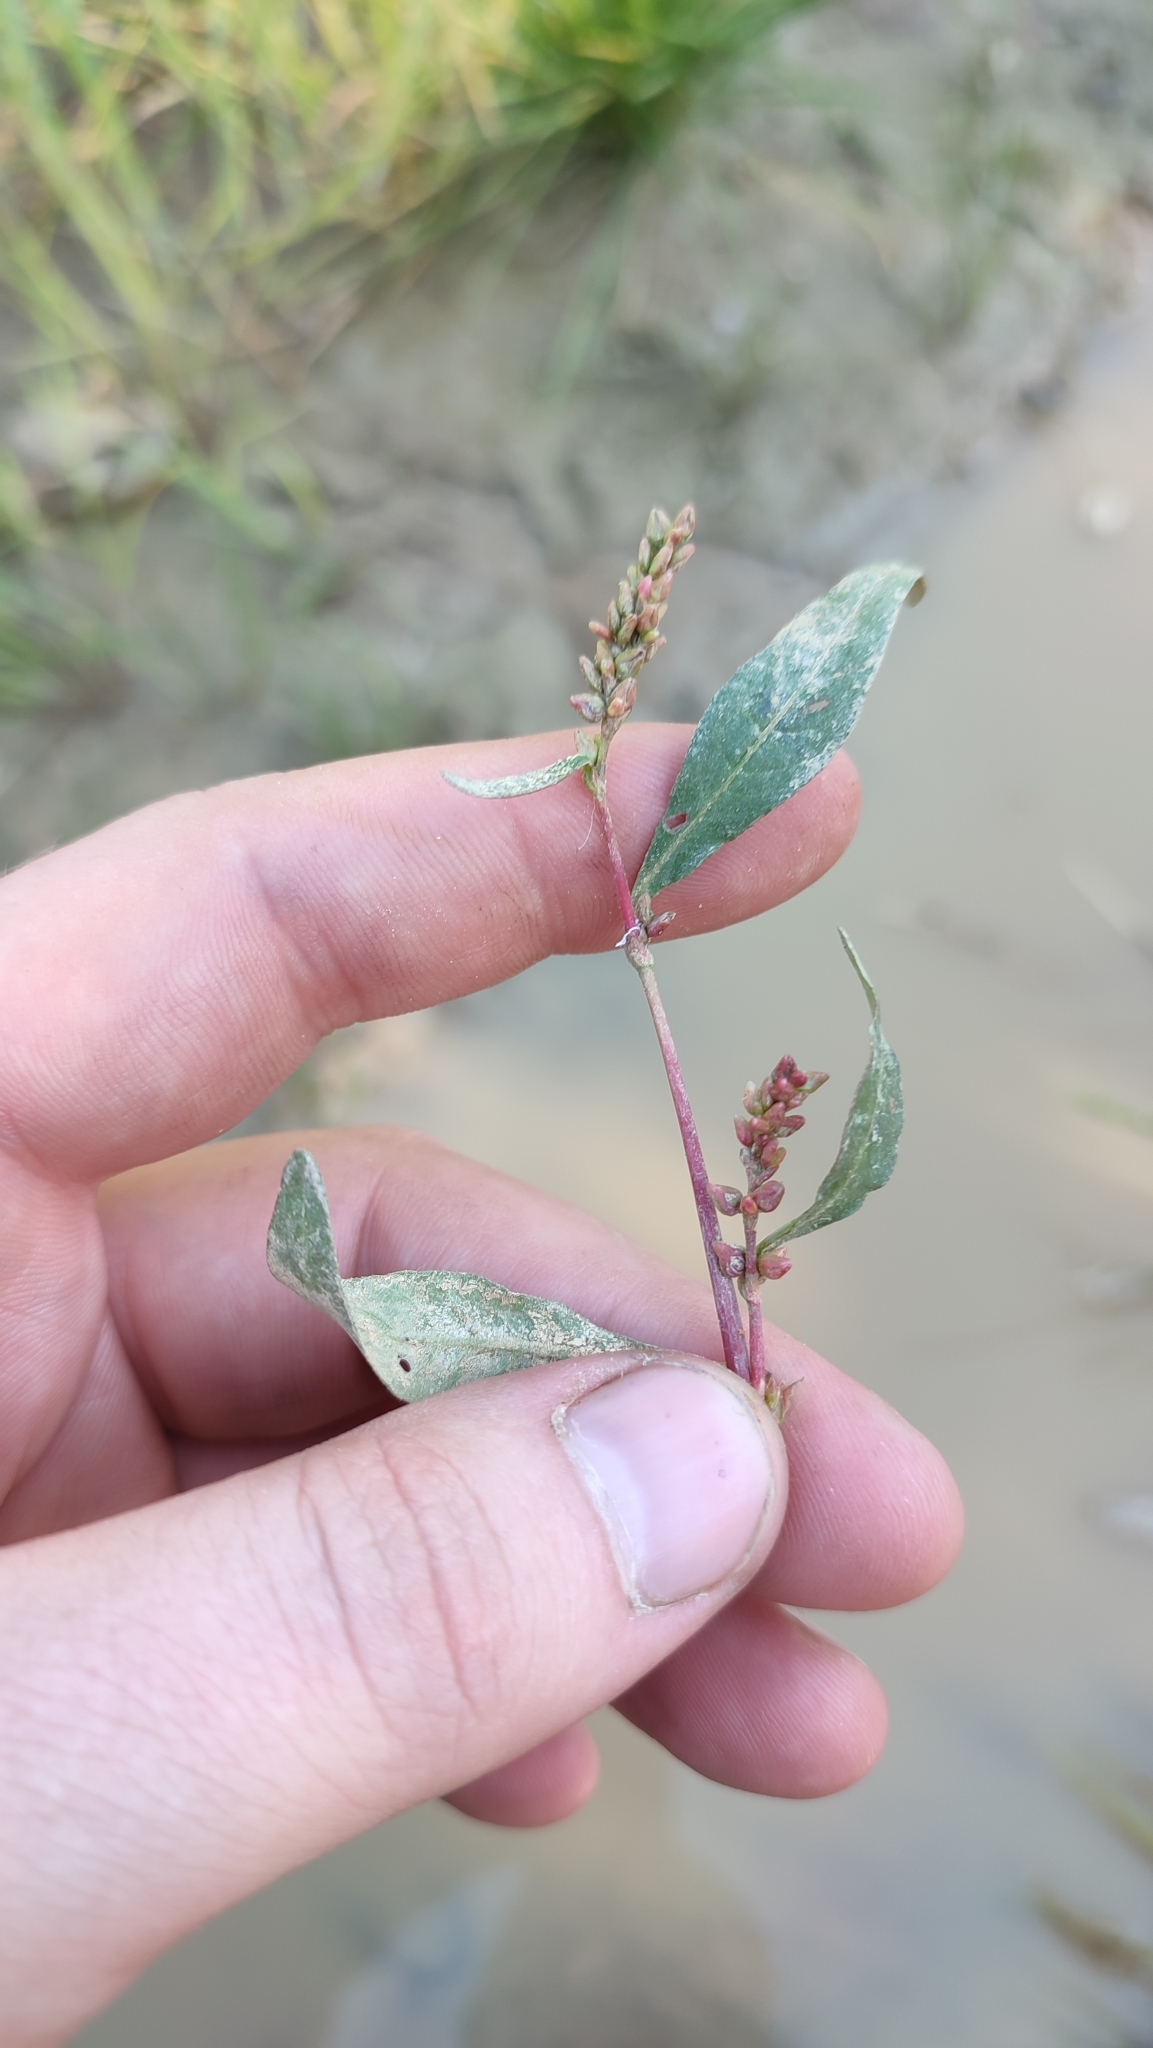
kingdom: Plantae
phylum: Tracheophyta
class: Magnoliopsida
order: Caryophyllales
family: Polygonaceae
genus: Persicaria
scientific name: Persicaria lapathifolia
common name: Curlytop knotweed
